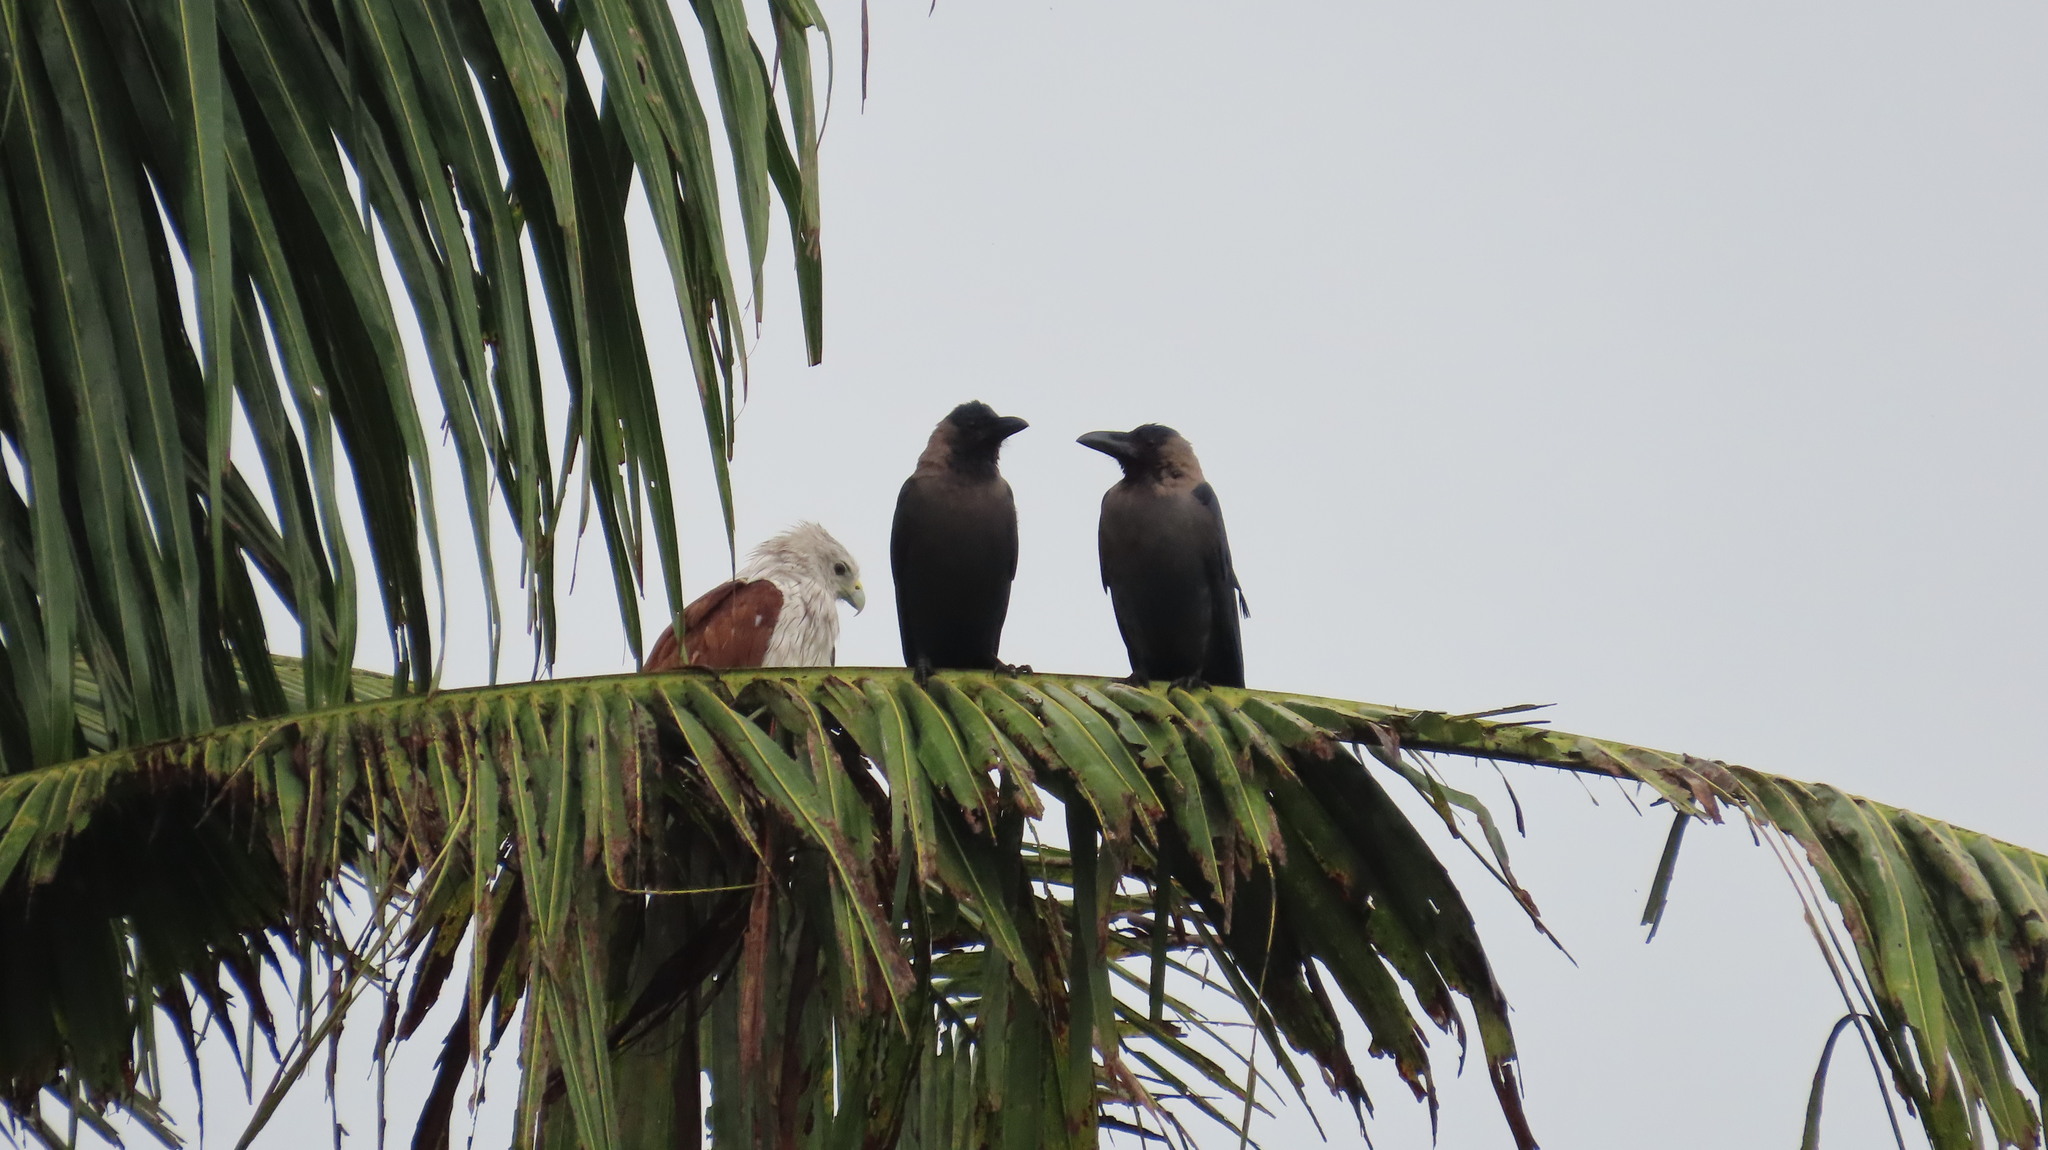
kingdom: Animalia
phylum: Chordata
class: Aves
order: Passeriformes
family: Corvidae
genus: Corvus
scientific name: Corvus splendens
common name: House crow
